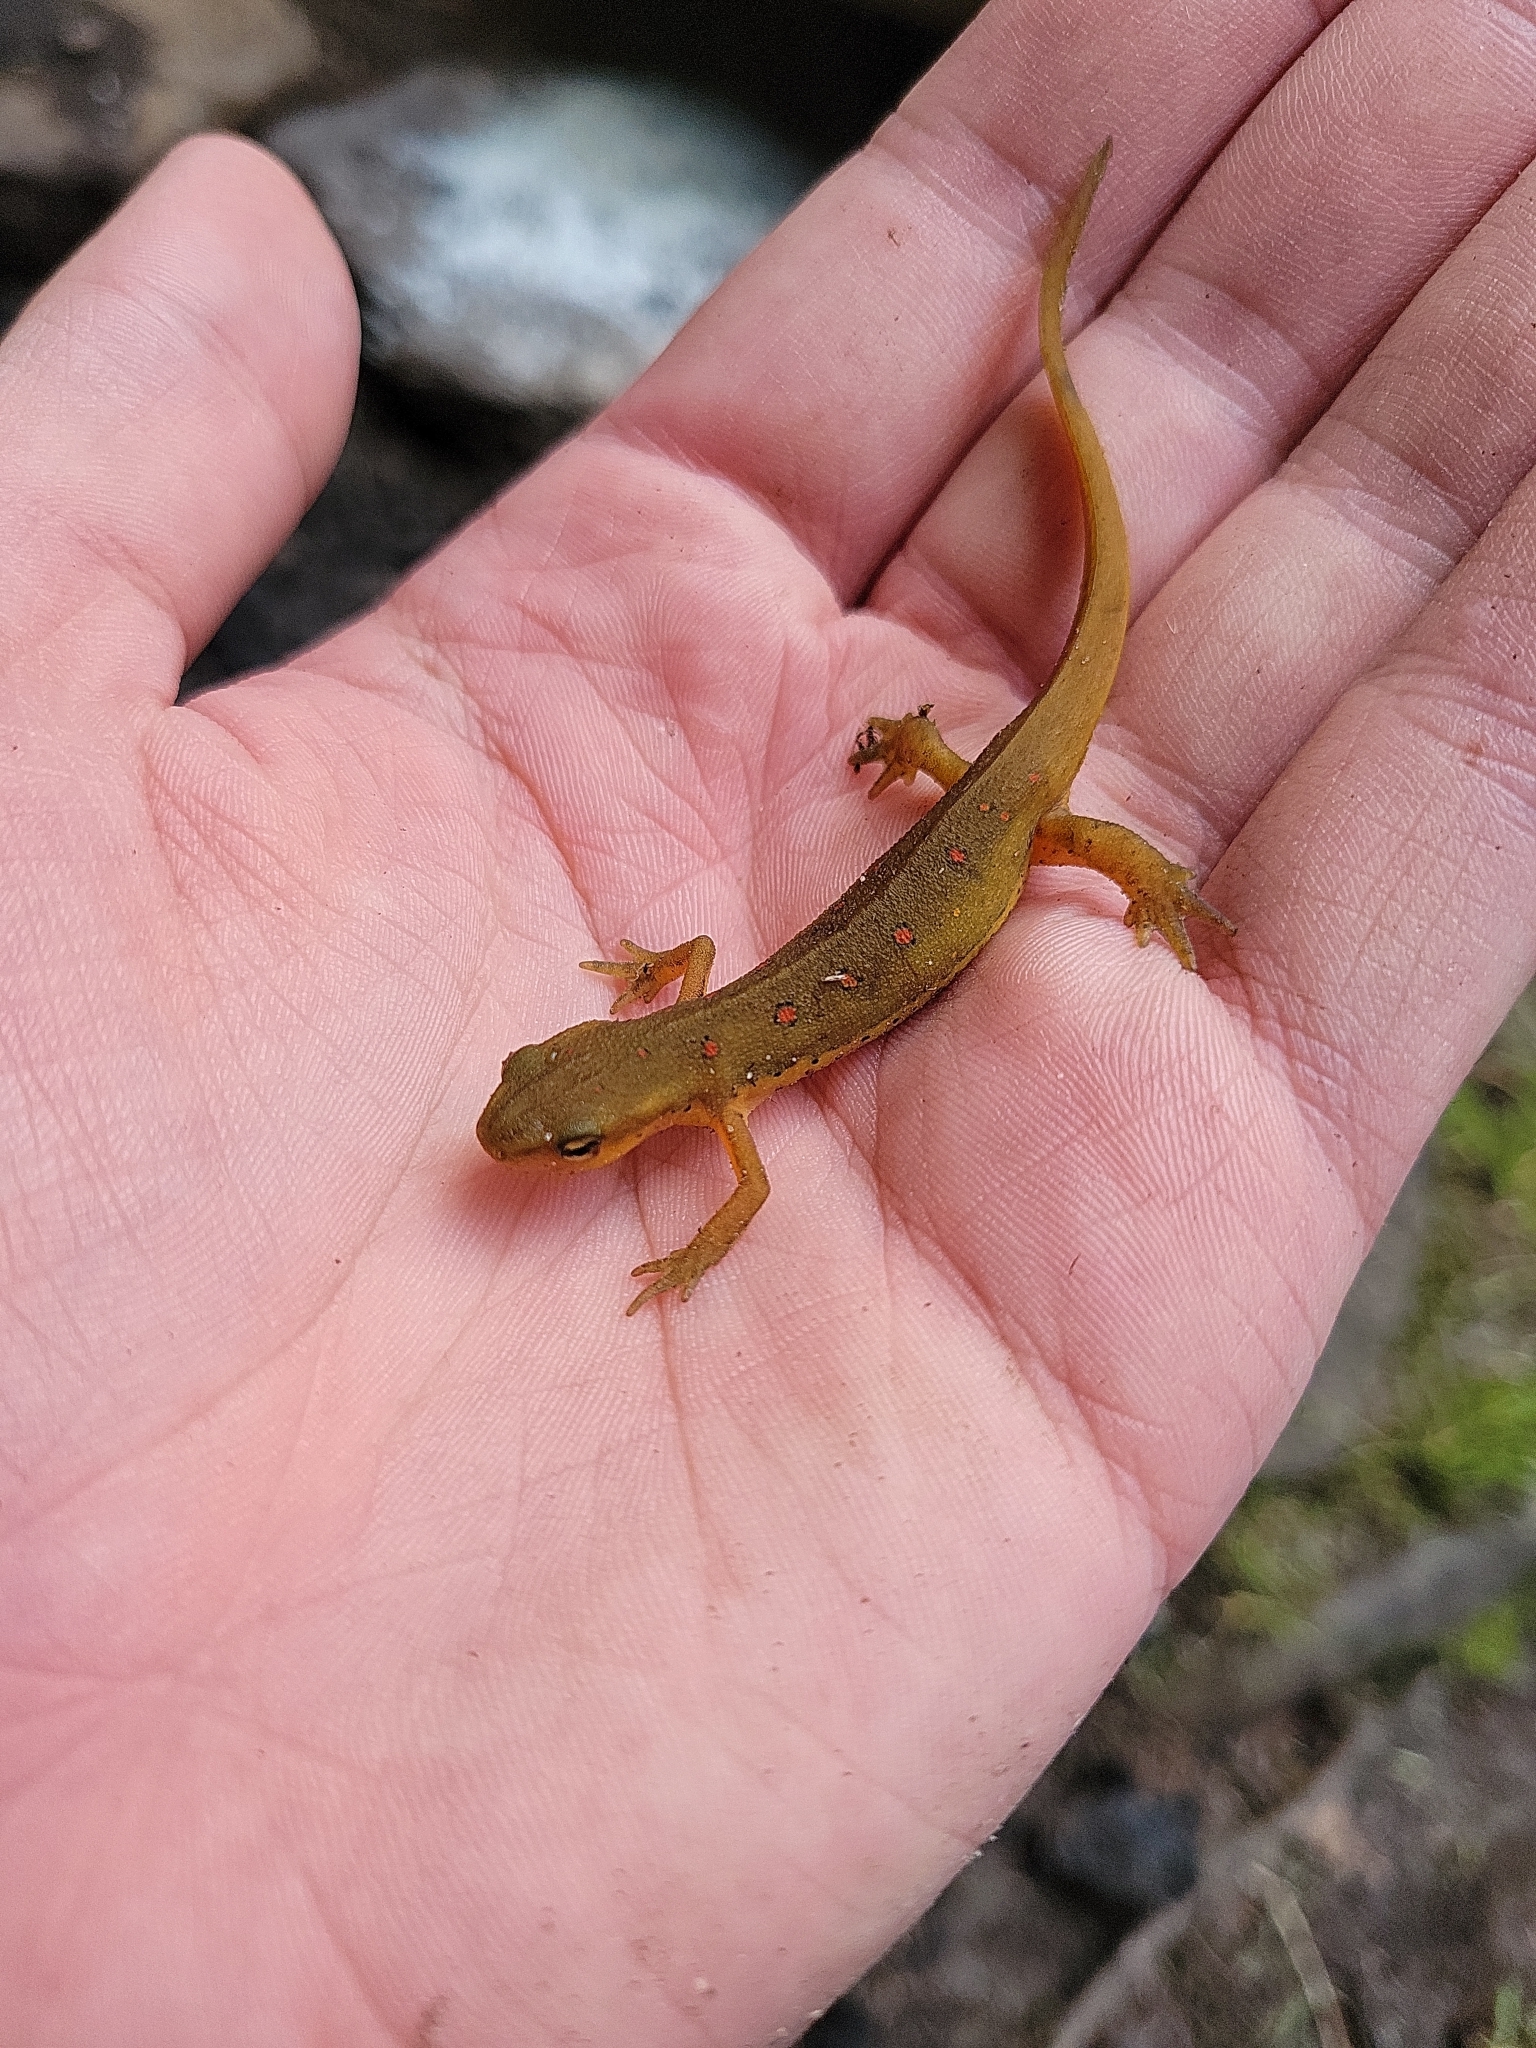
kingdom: Animalia
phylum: Chordata
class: Amphibia
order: Caudata
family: Salamandridae
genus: Notophthalmus
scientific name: Notophthalmus viridescens
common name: Eastern newt
